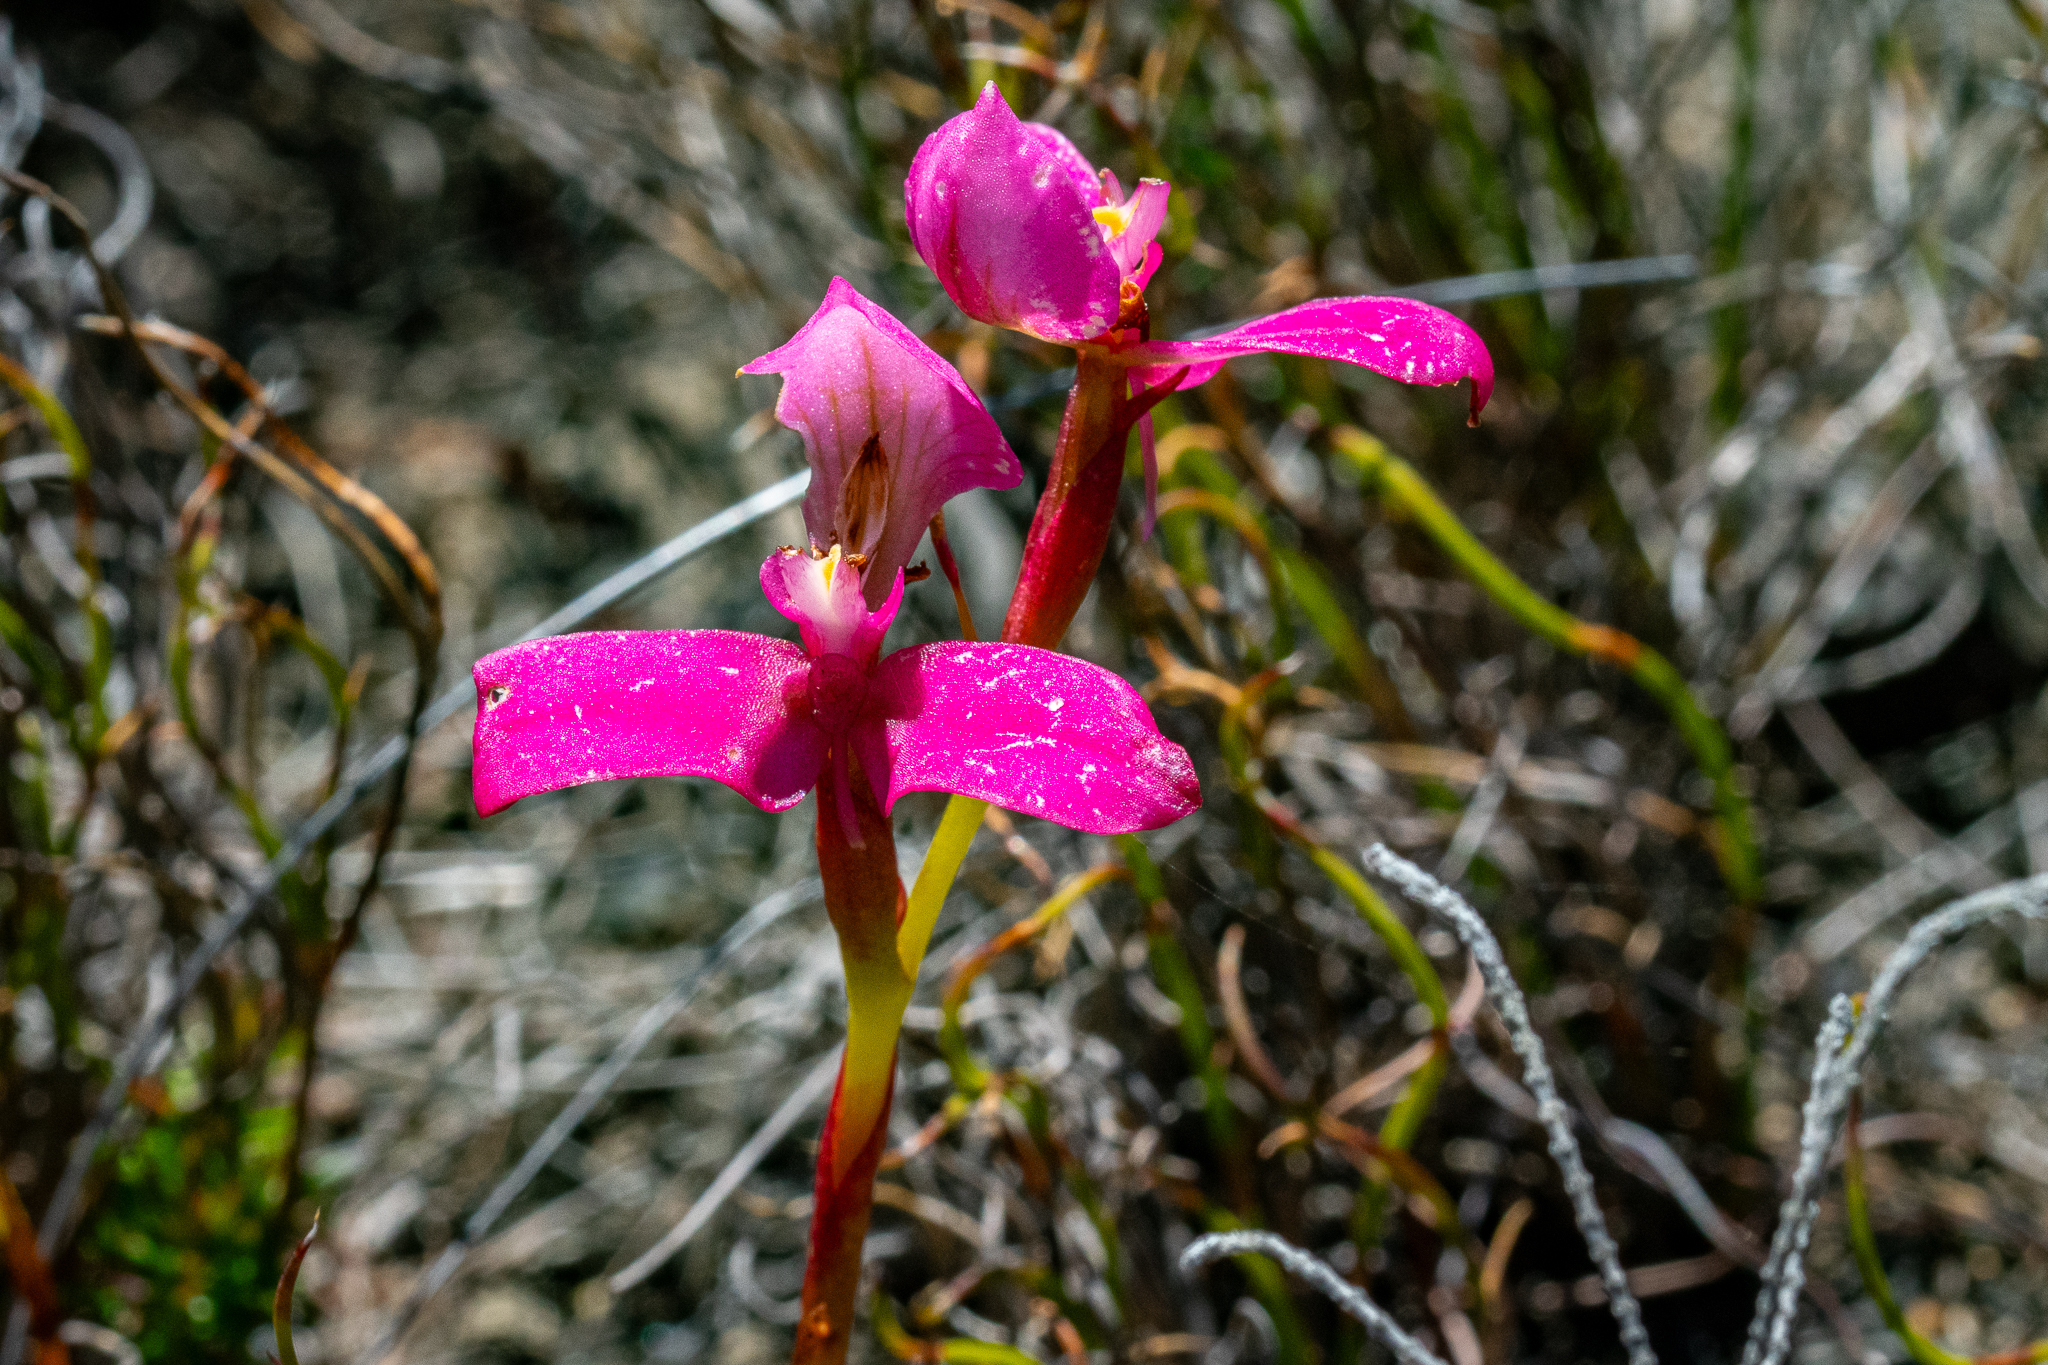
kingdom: Plantae
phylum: Tracheophyta
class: Liliopsida
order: Asparagales
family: Orchidaceae
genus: Disa
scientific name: Disa filicornis
